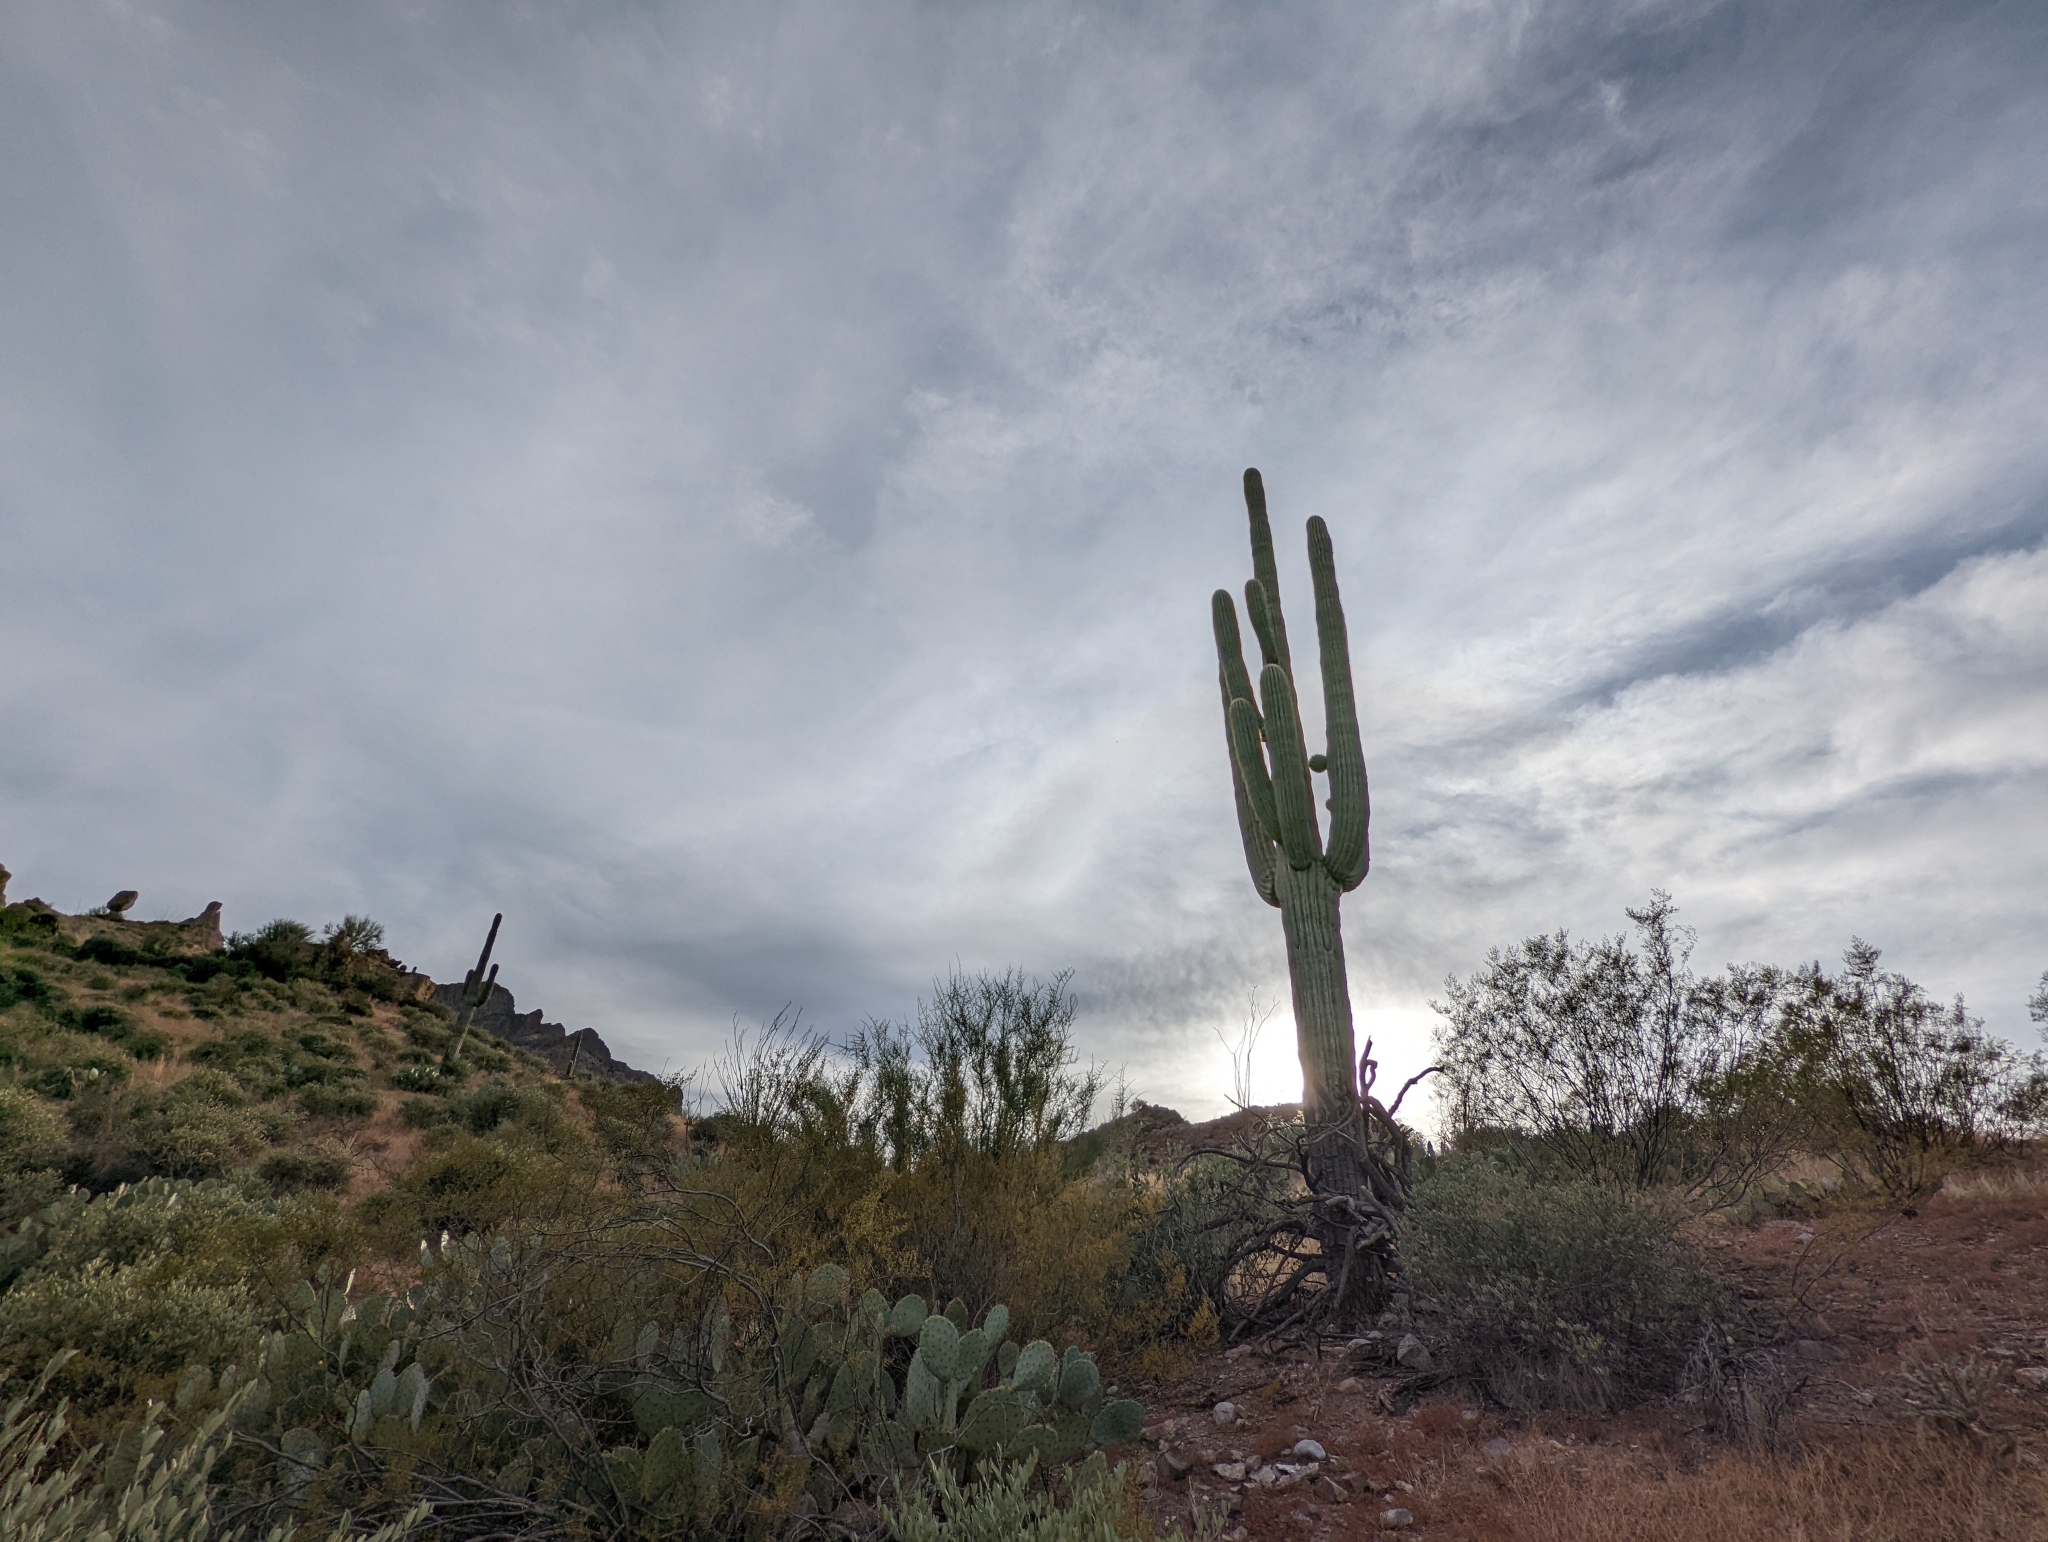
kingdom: Plantae
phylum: Tracheophyta
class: Magnoliopsida
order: Caryophyllales
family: Cactaceae
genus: Carnegiea
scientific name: Carnegiea gigantea
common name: Saguaro
